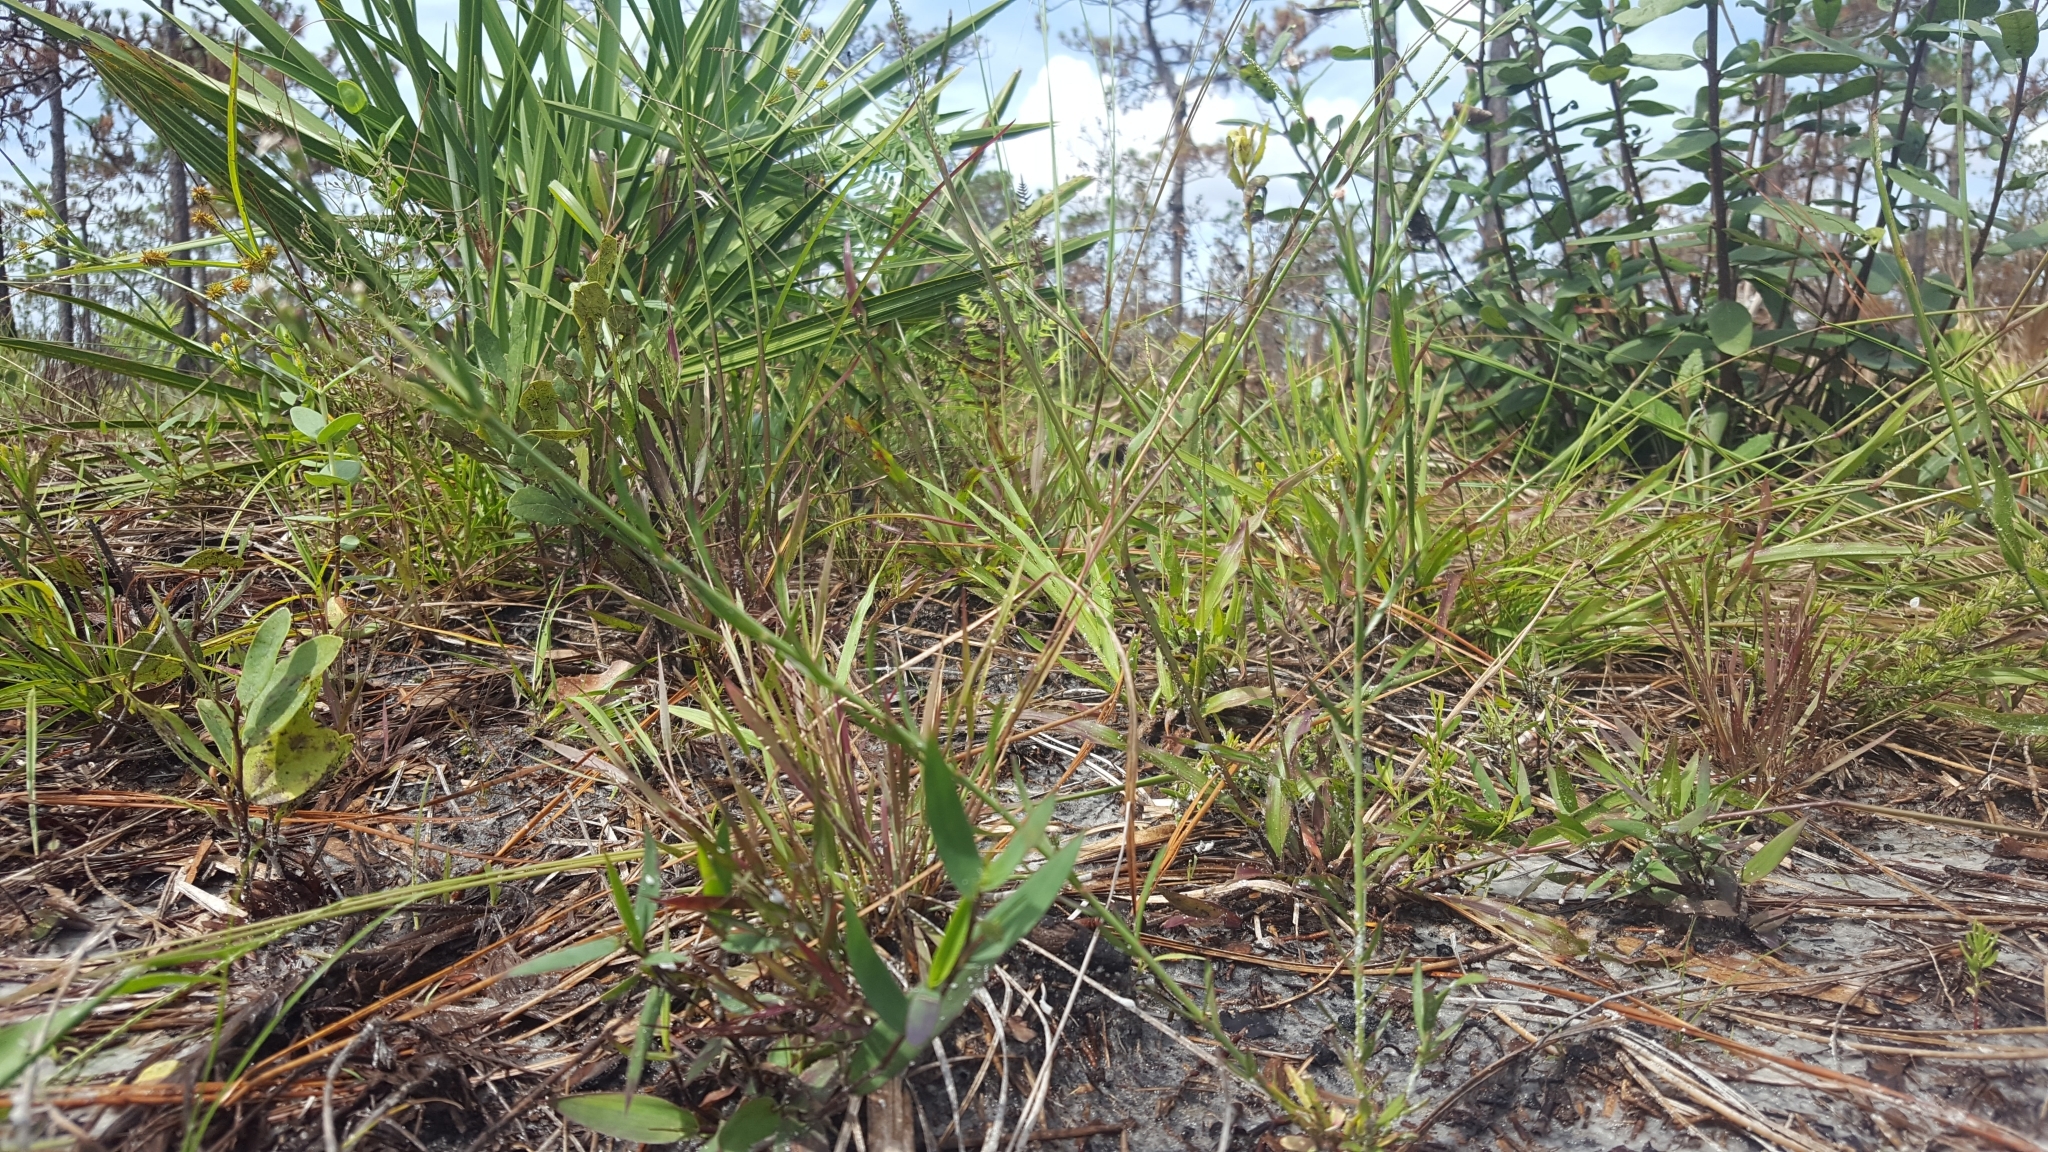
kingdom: Plantae
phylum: Tracheophyta
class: Magnoliopsida
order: Malpighiales
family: Euphorbiaceae
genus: Euphorbia
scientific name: Euphorbia polyphylla
